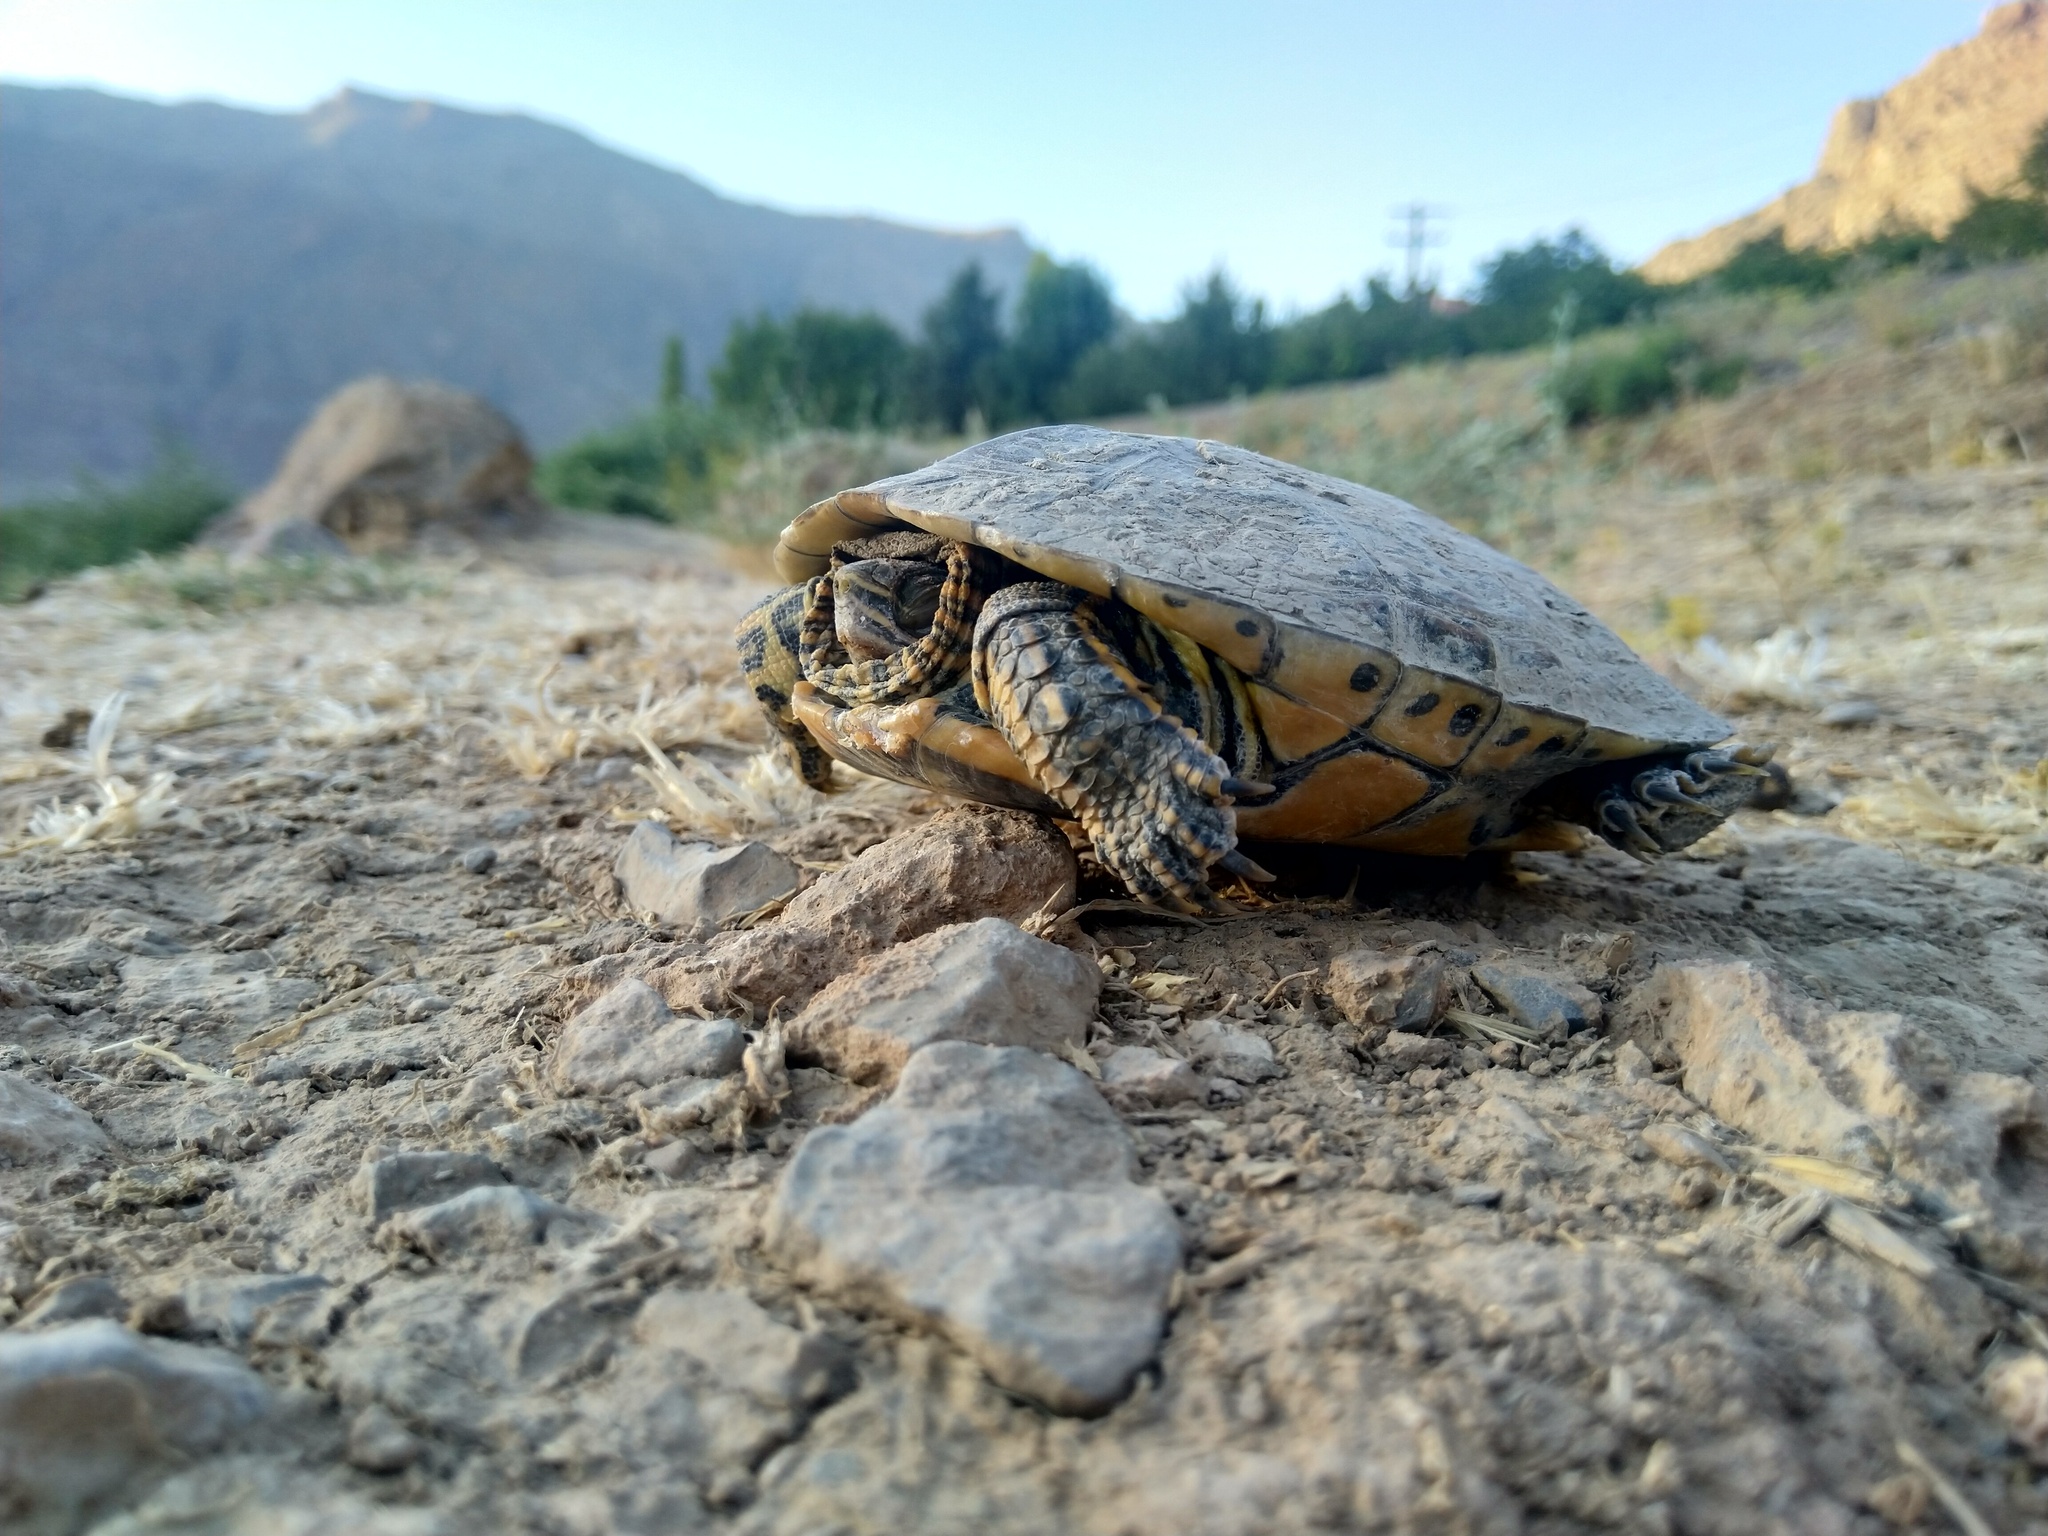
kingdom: Animalia
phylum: Chordata
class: Testudines
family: Geoemydidae
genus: Mauremys
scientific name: Mauremys caspica
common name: Caspian turtle
